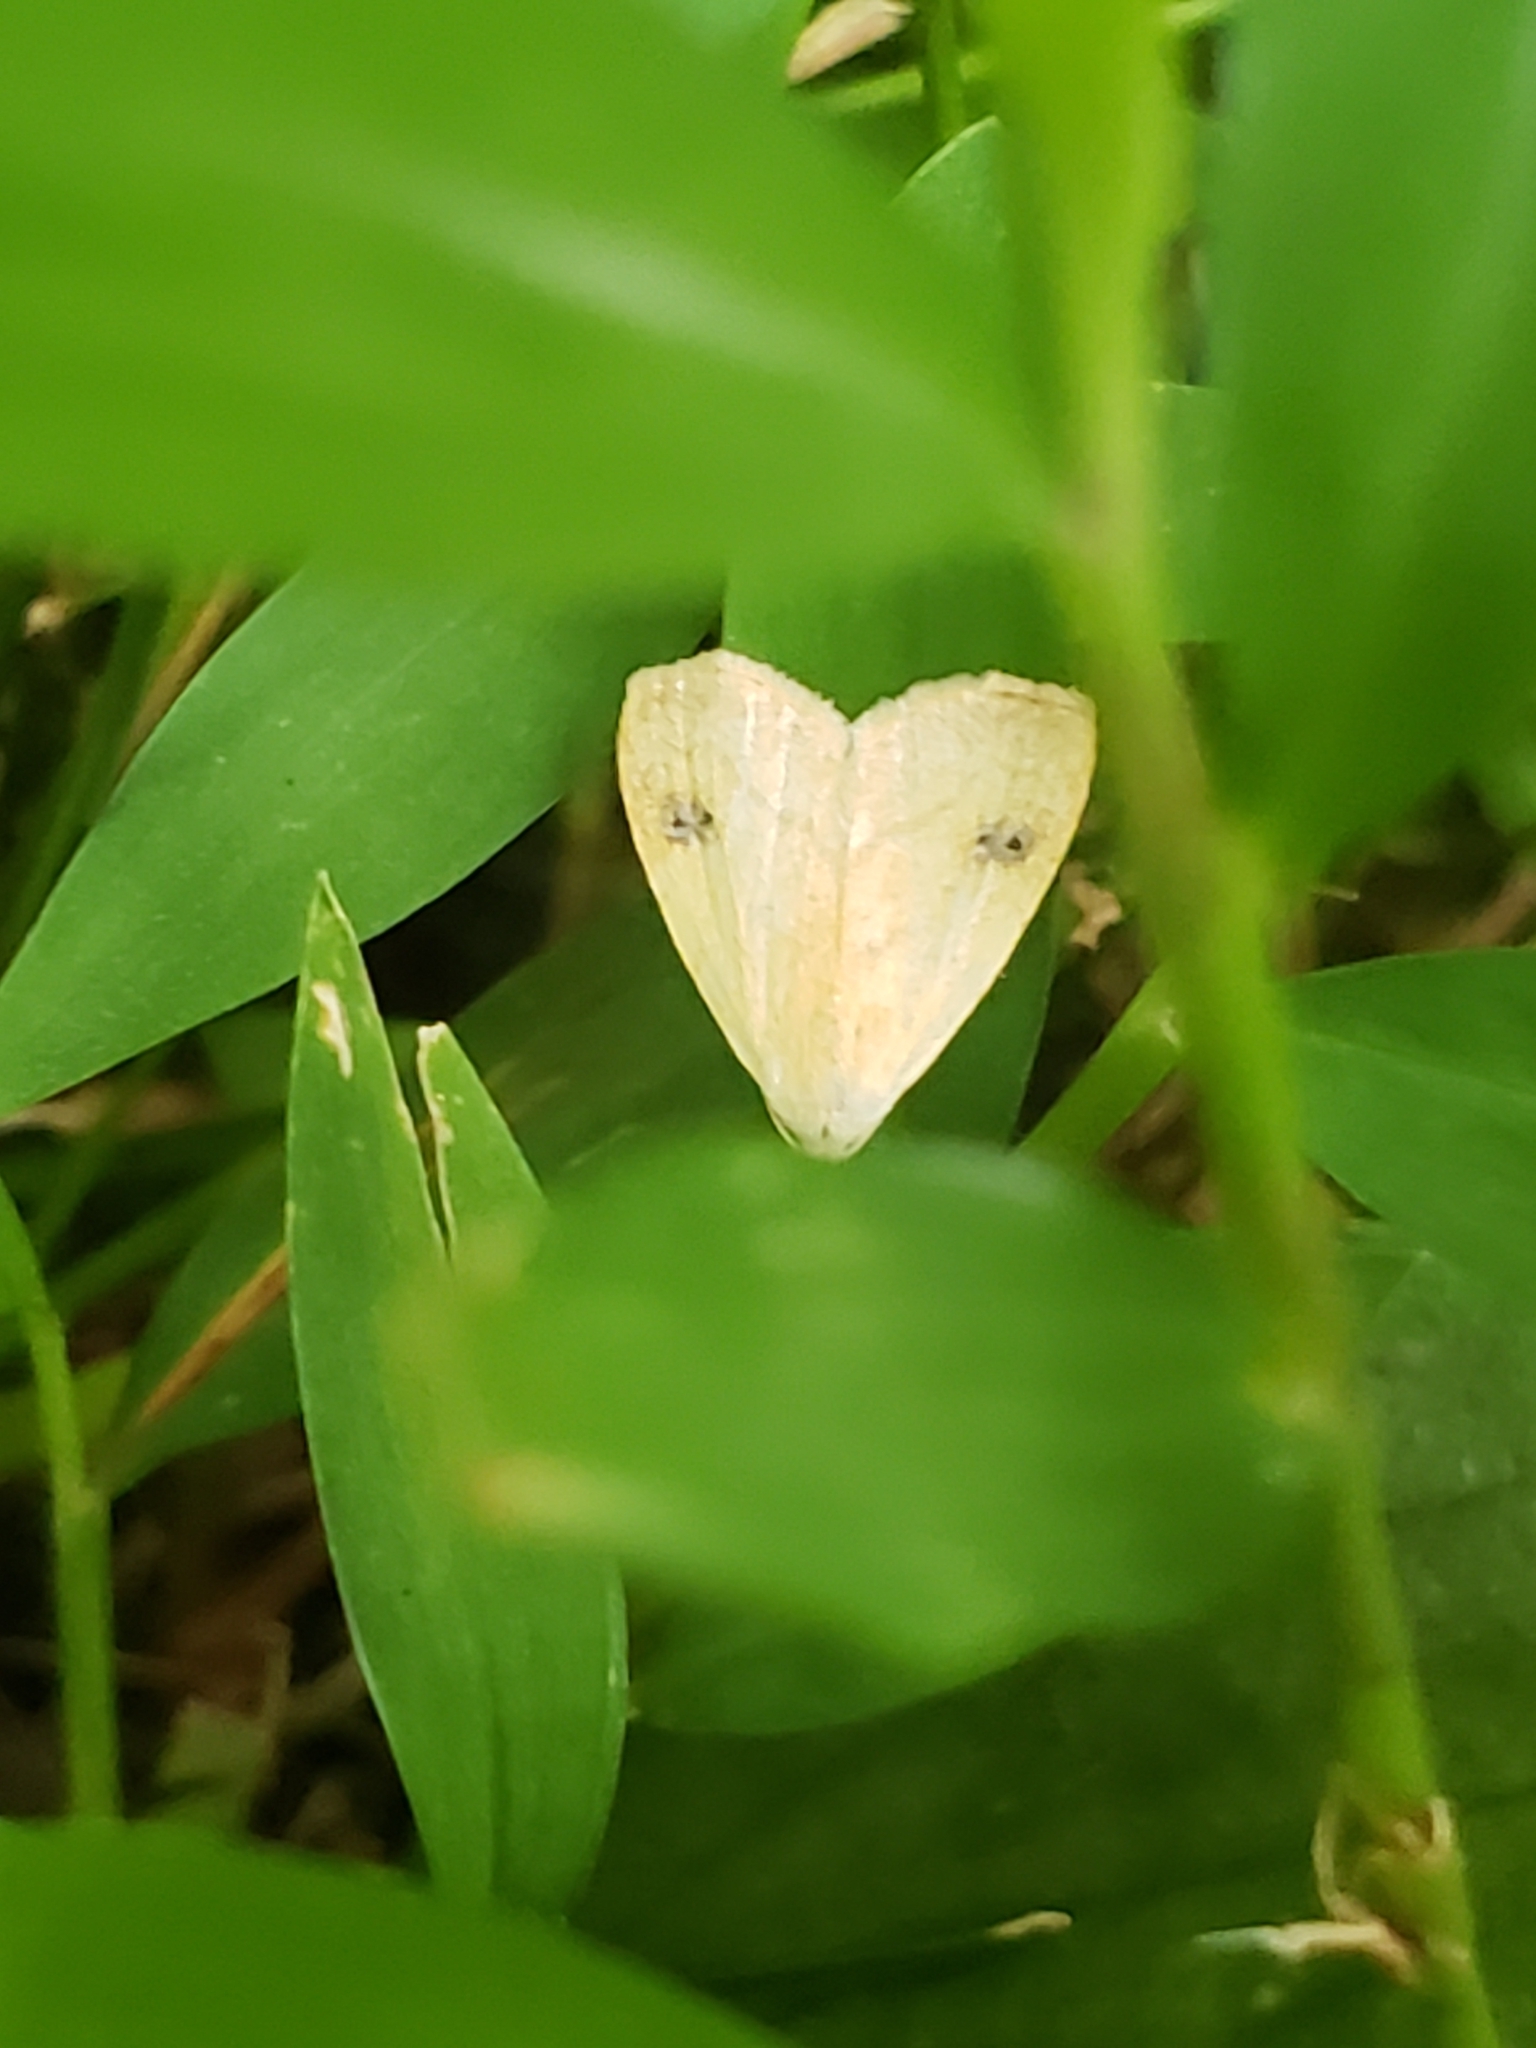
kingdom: Animalia
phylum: Arthropoda
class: Insecta
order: Lepidoptera
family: Erebidae
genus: Rivula
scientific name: Rivula propinqualis
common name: Spotted grass moth
